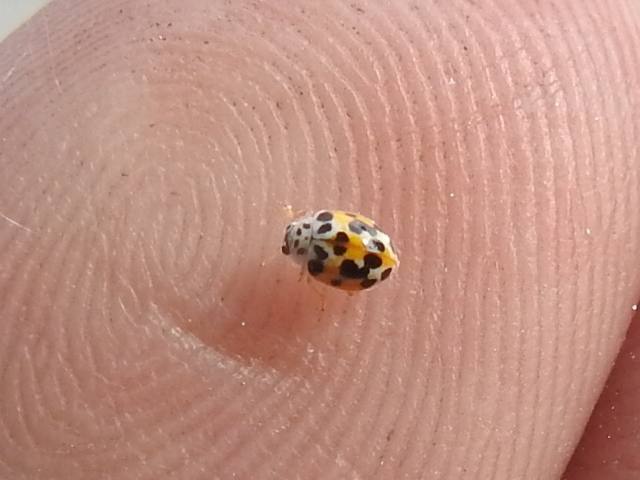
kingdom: Animalia
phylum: Arthropoda
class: Insecta
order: Coleoptera
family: Coccinellidae
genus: Psyllobora
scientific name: Psyllobora vigintimaculata
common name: Ladybird beetle
